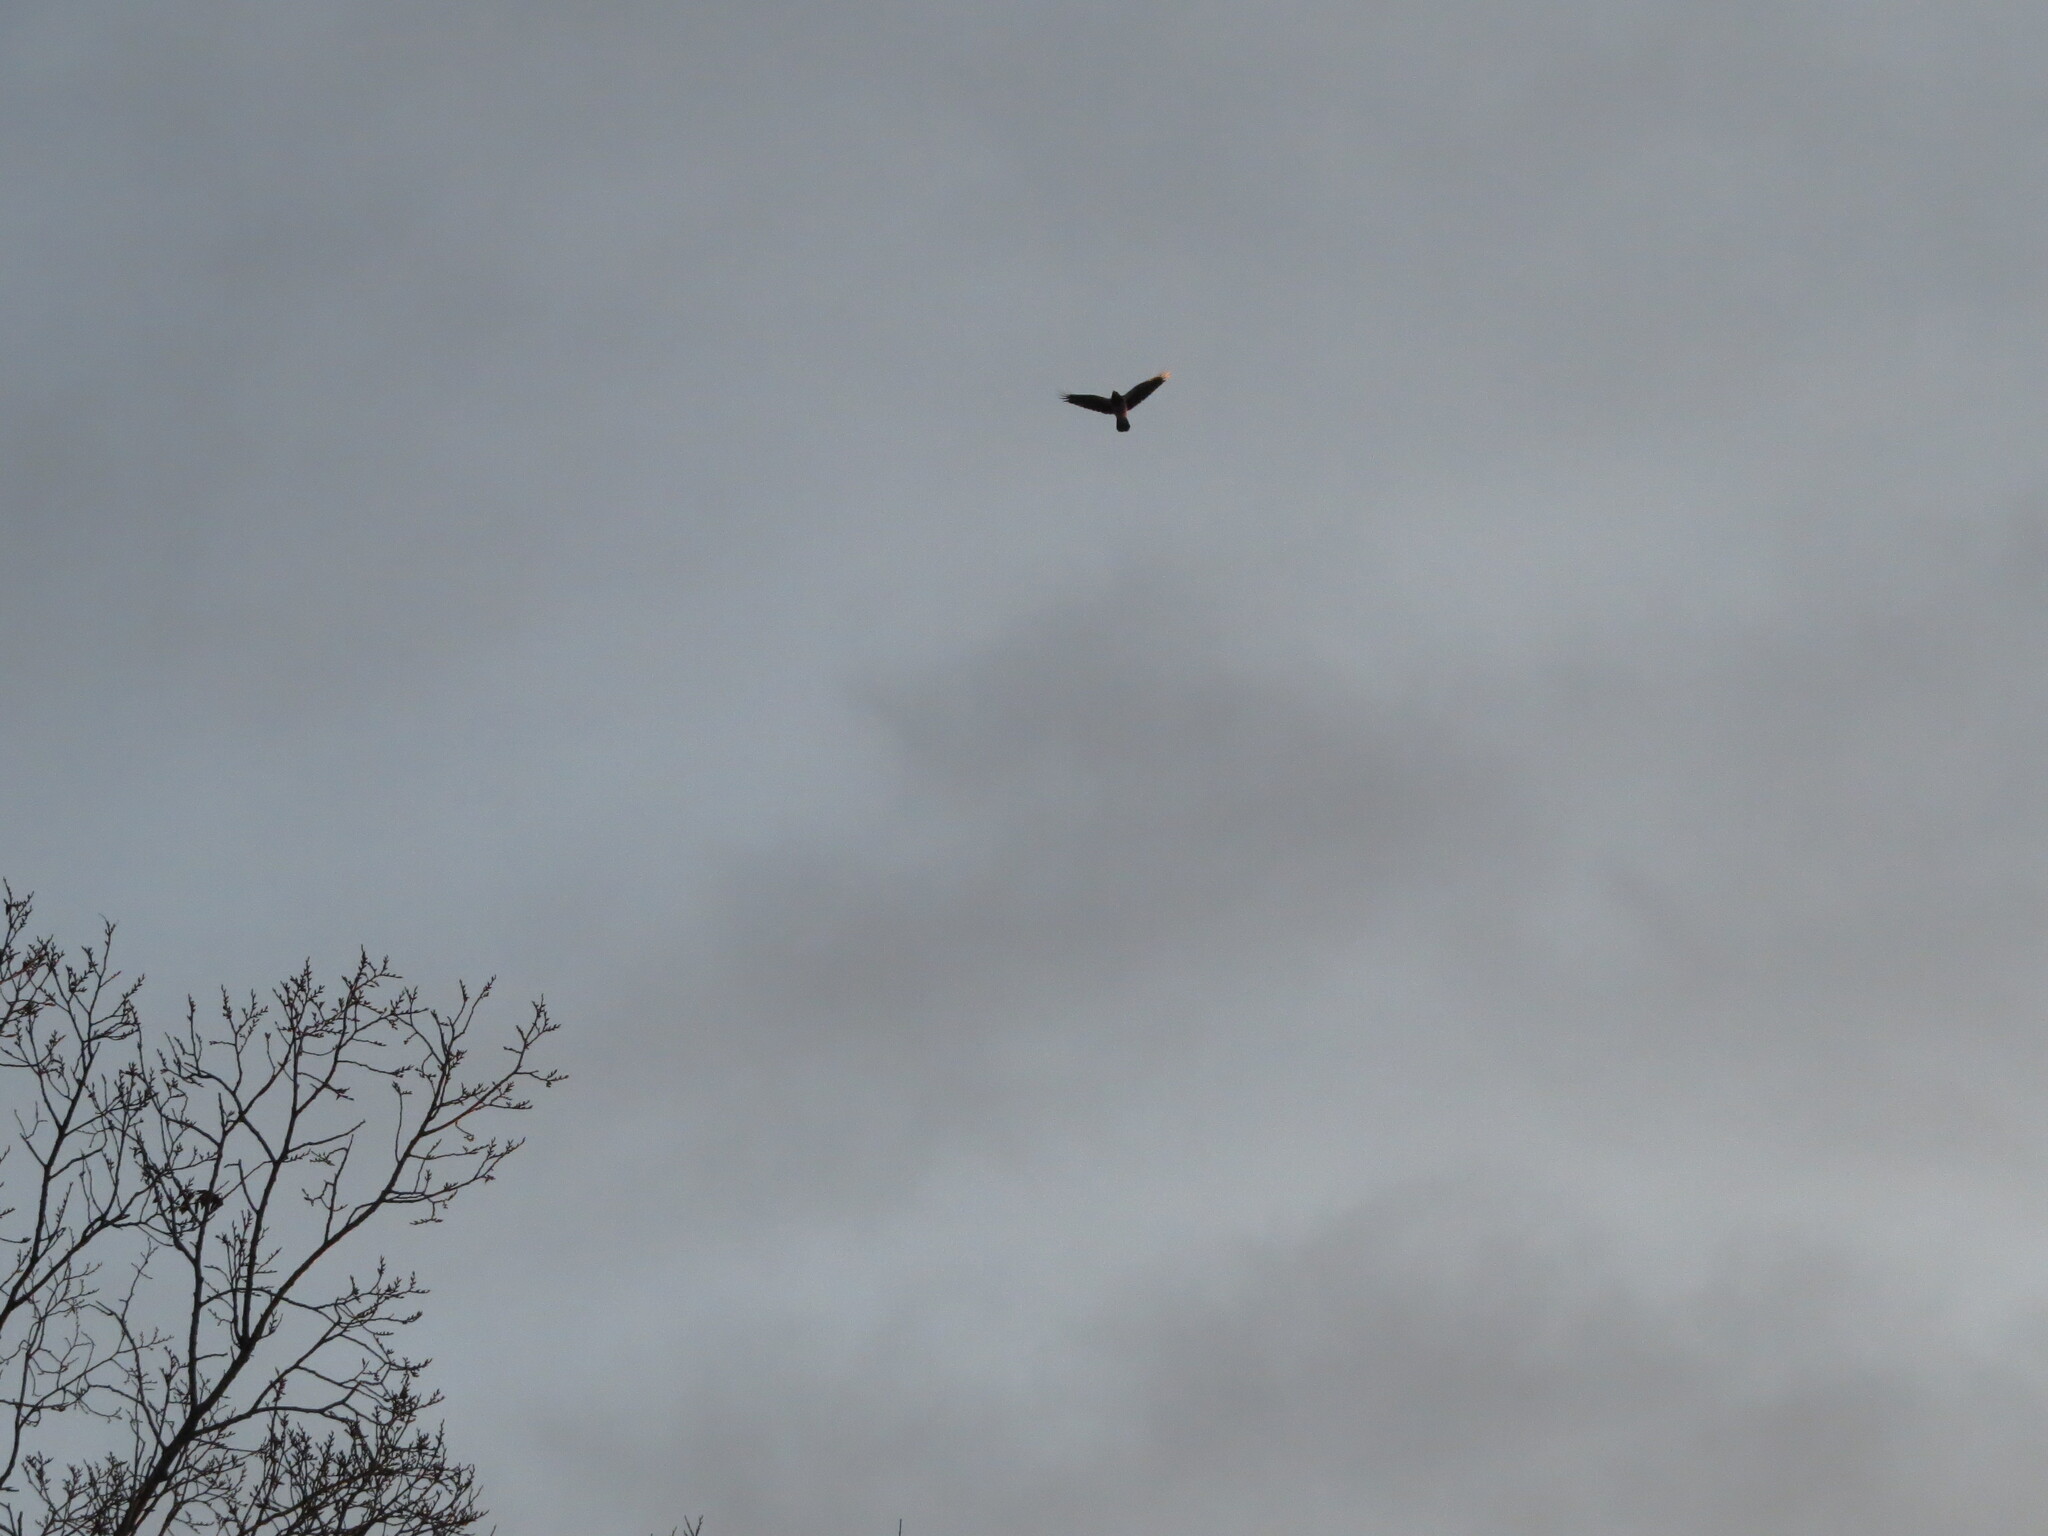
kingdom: Animalia
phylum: Chordata
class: Aves
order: Passeriformes
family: Corvidae
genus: Corvus
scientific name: Corvus cornix
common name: Hooded crow
